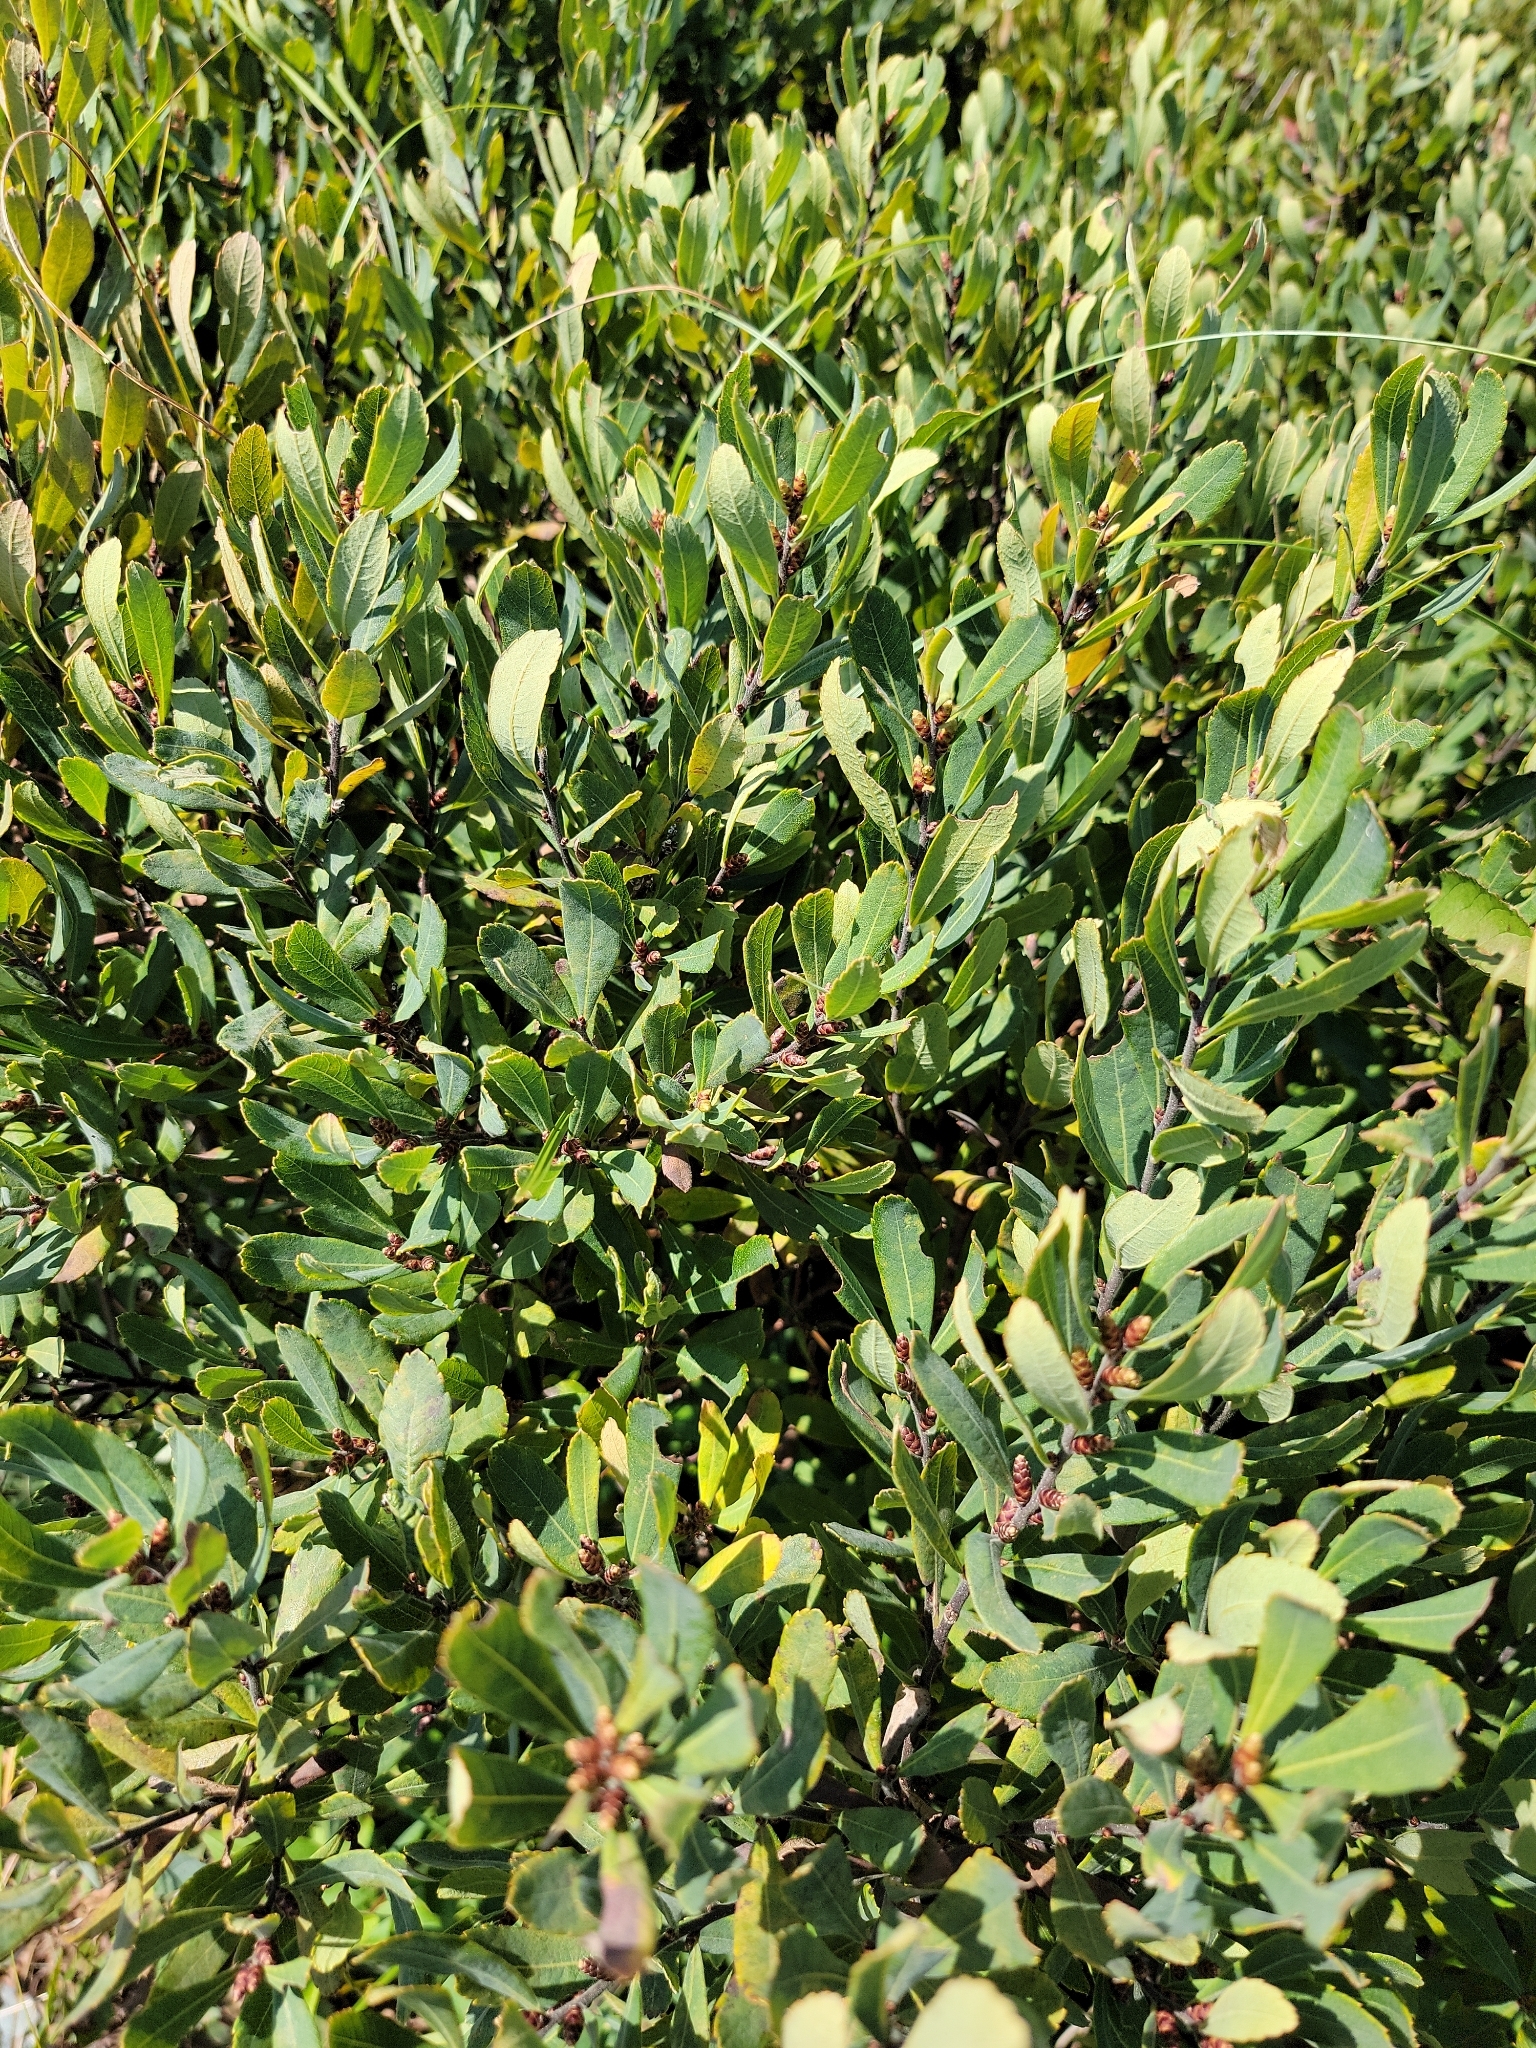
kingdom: Plantae
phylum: Tracheophyta
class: Magnoliopsida
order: Fagales
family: Myricaceae
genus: Myrica
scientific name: Myrica gale
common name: Sweet gale
